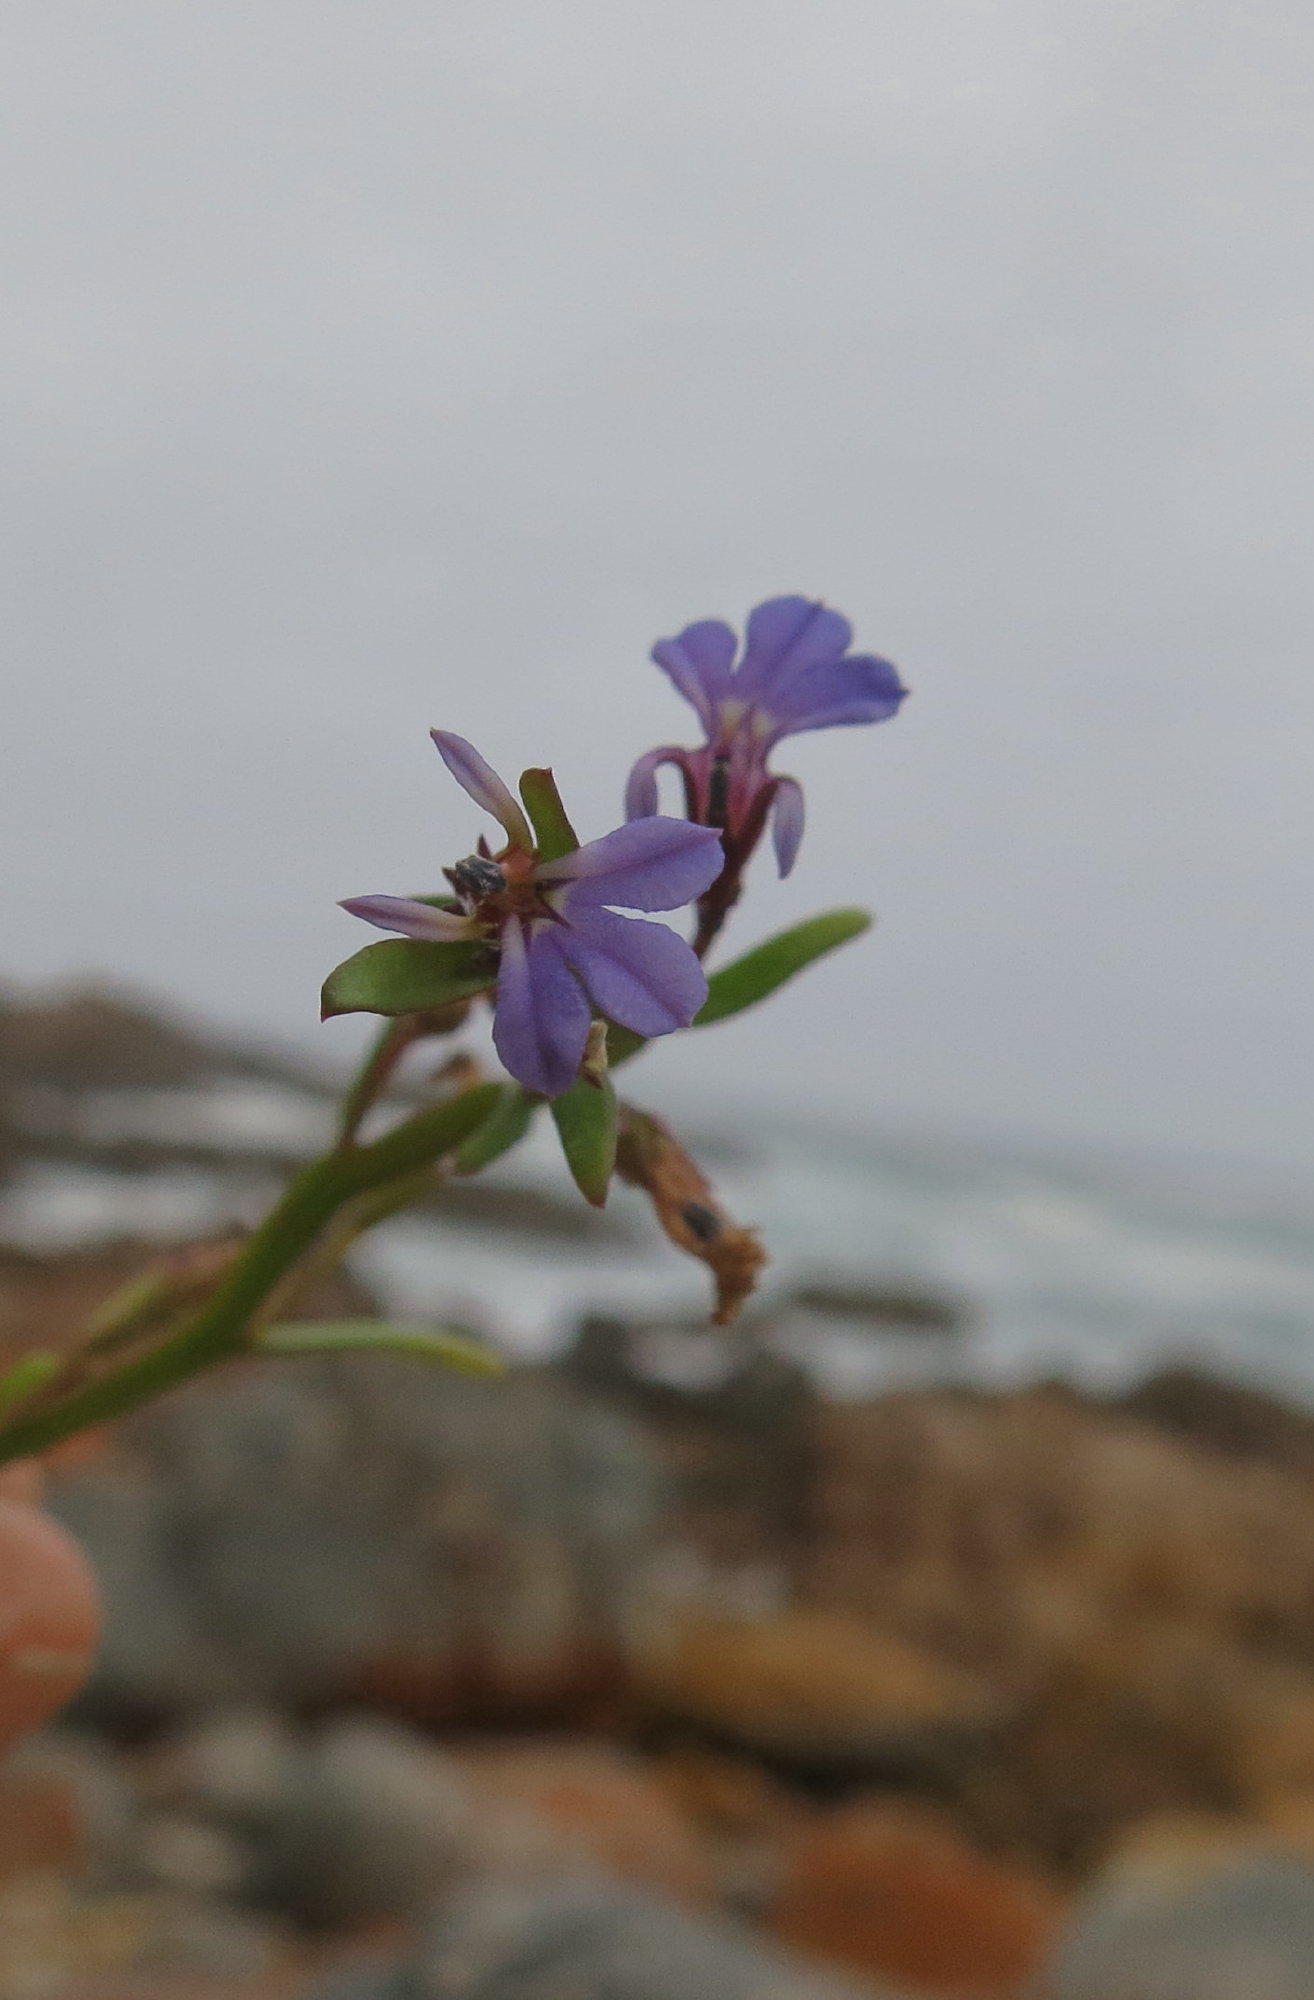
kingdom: Plantae
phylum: Tracheophyta
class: Magnoliopsida
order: Asterales
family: Campanulaceae
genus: Lobelia
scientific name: Lobelia anceps
